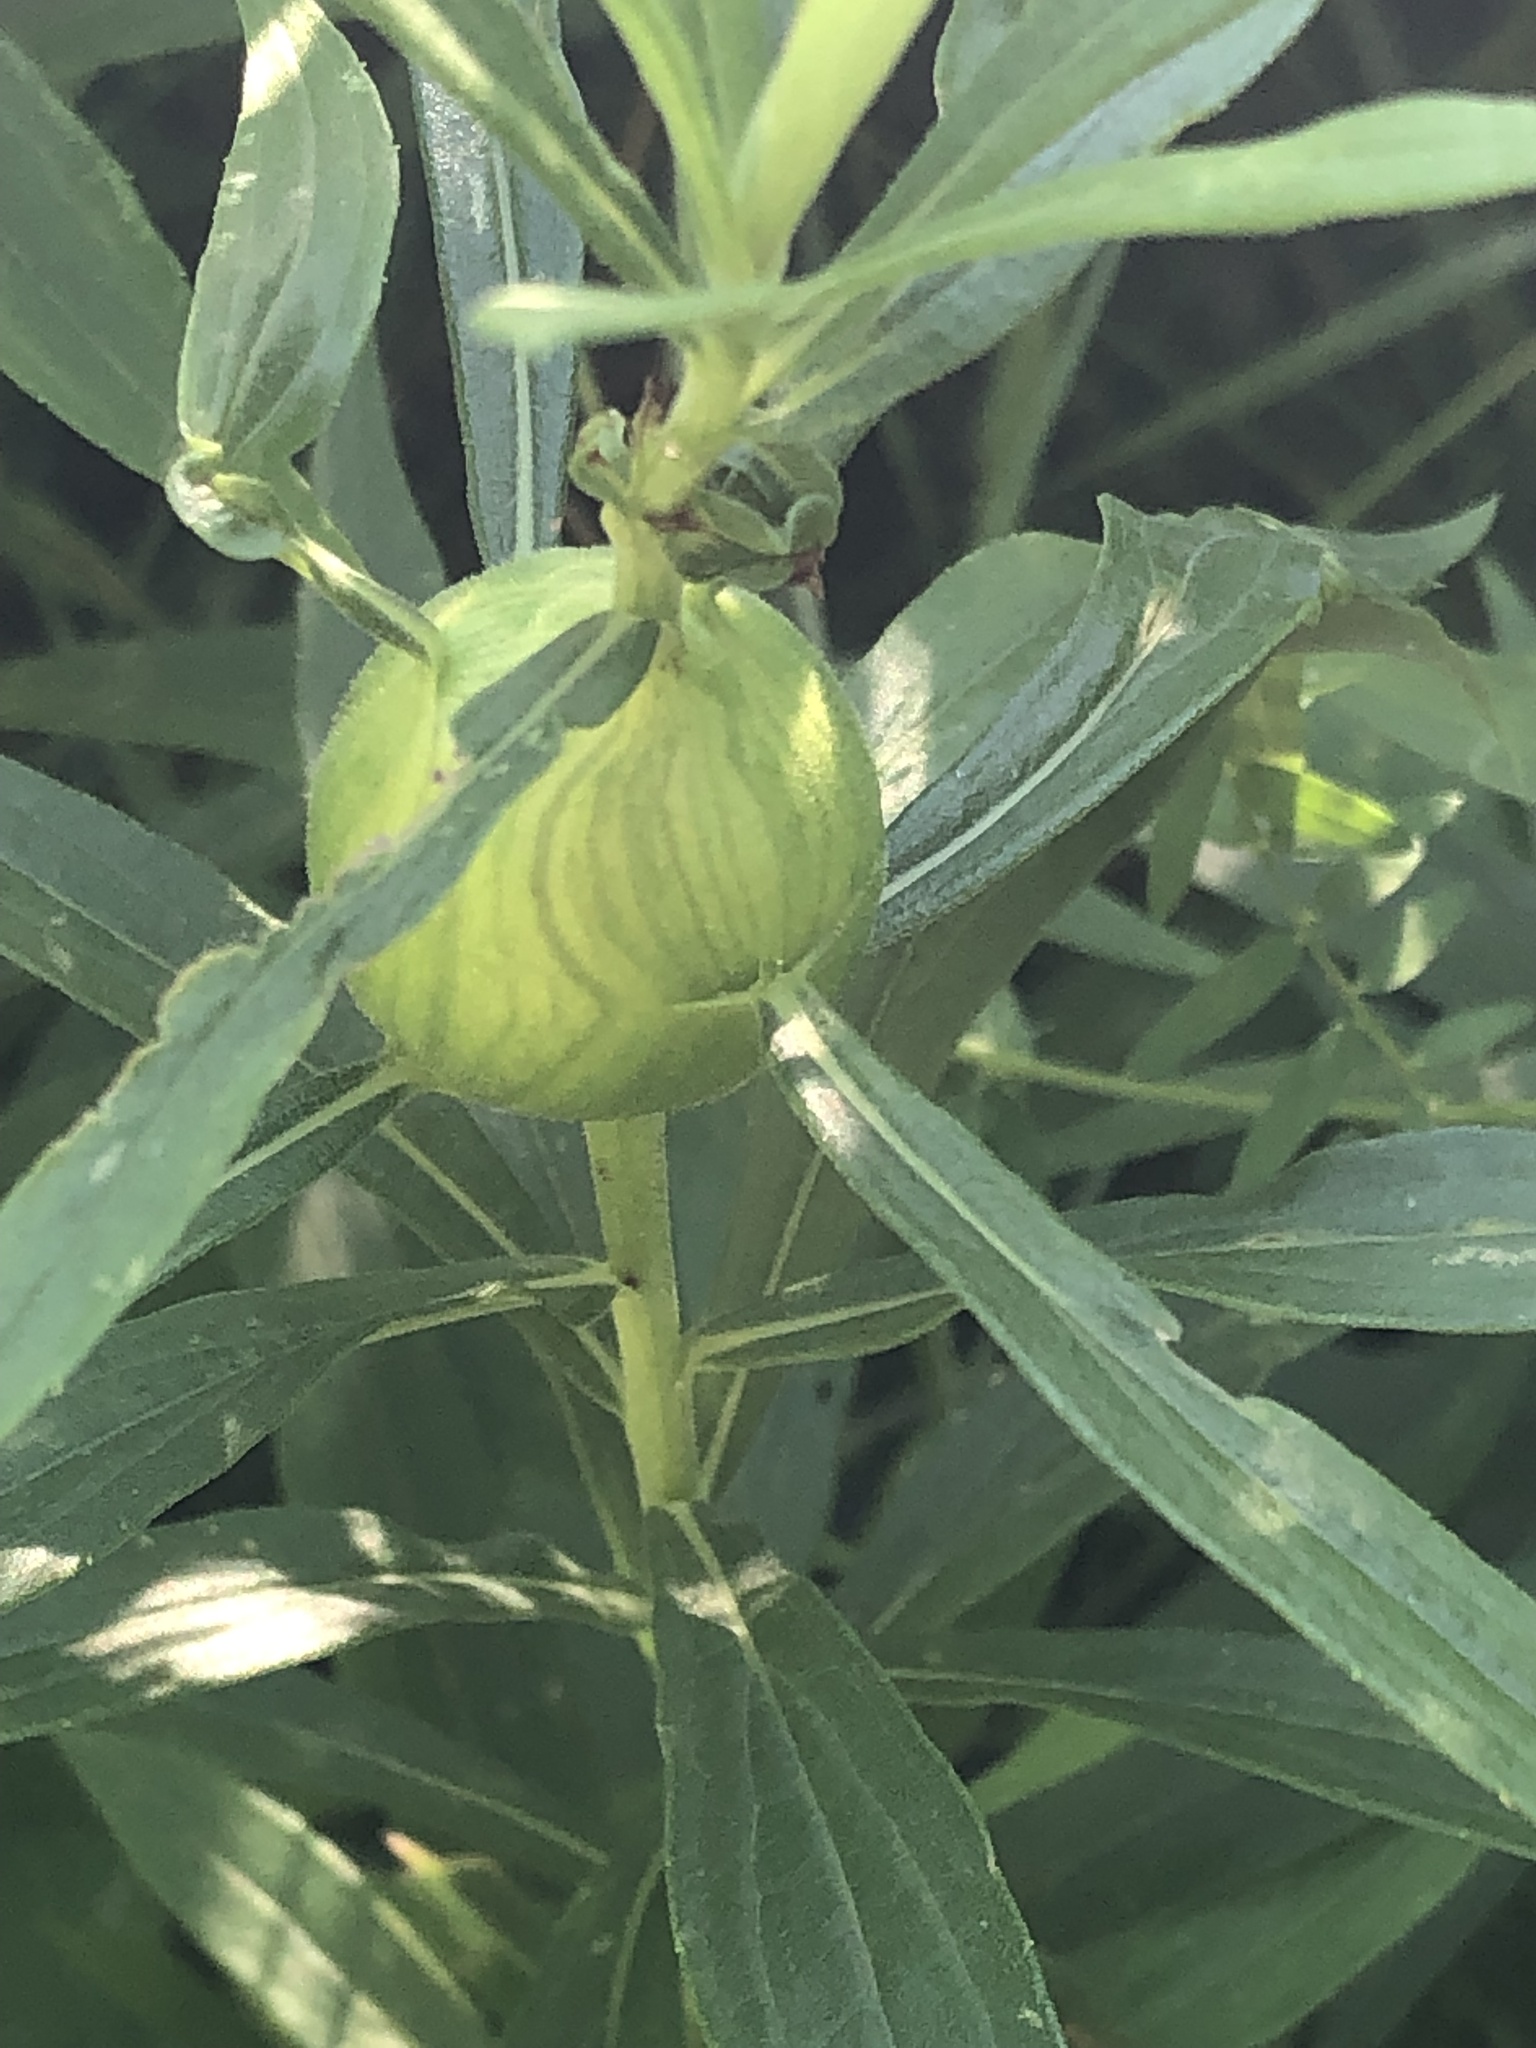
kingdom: Animalia
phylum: Arthropoda
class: Insecta
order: Diptera
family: Tephritidae
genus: Eurosta
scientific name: Eurosta solidaginis
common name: Goldenrod gall fly
